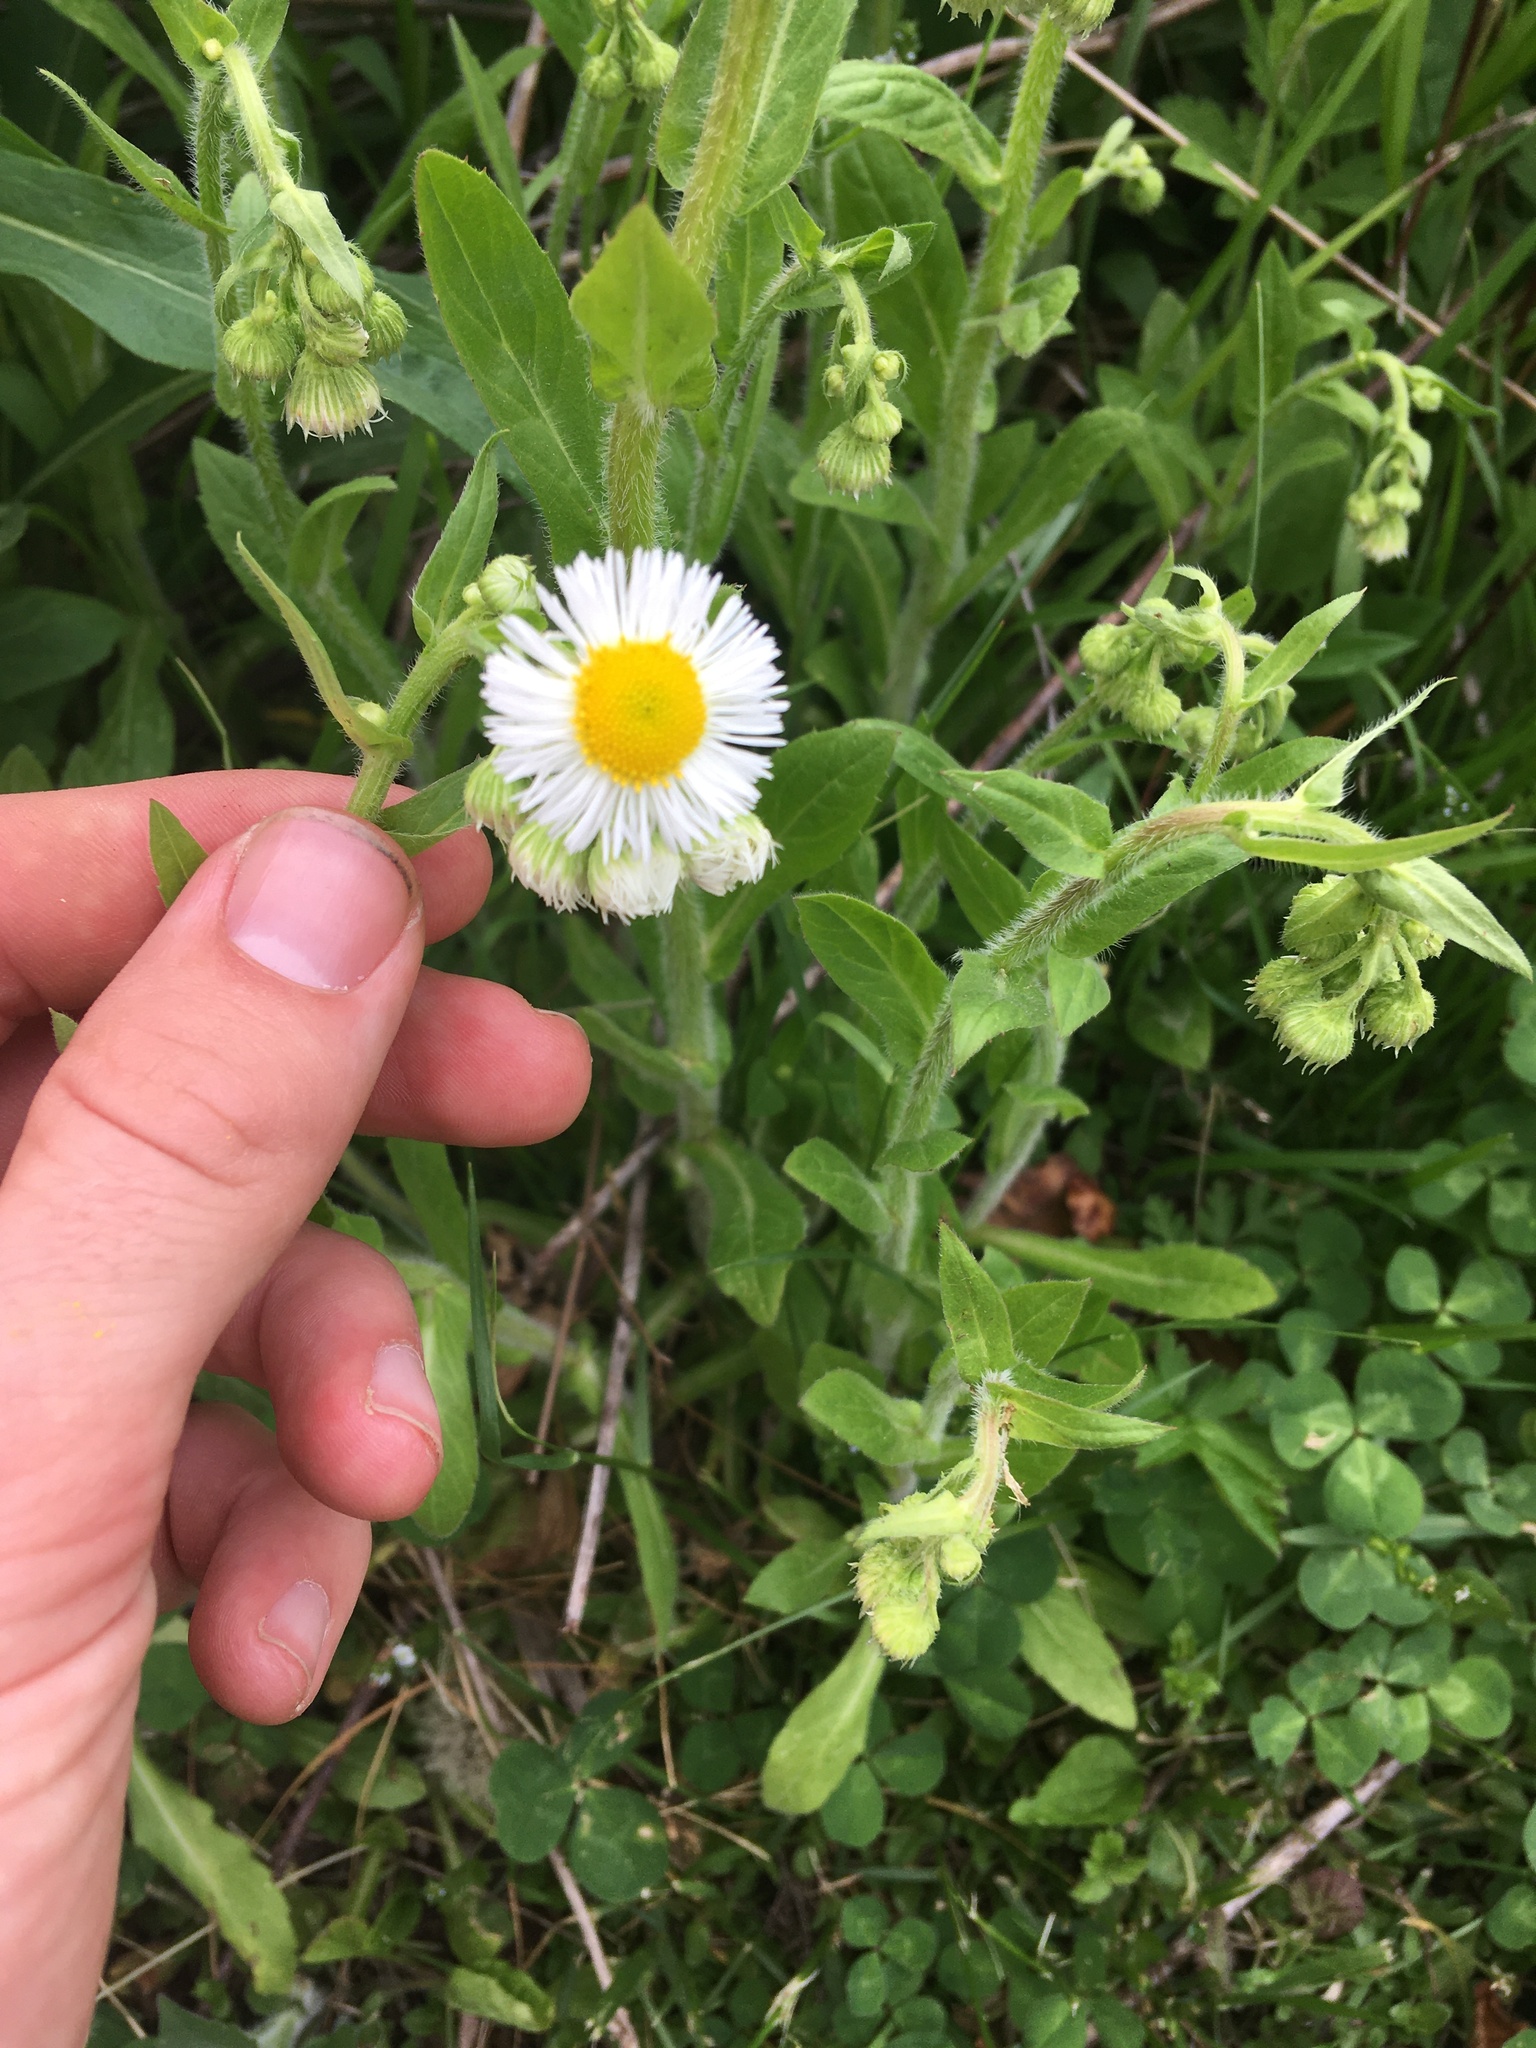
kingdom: Plantae
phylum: Tracheophyta
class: Magnoliopsida
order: Asterales
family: Asteraceae
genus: Erigeron
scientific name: Erigeron philadelphicus
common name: Robin's-plantain
